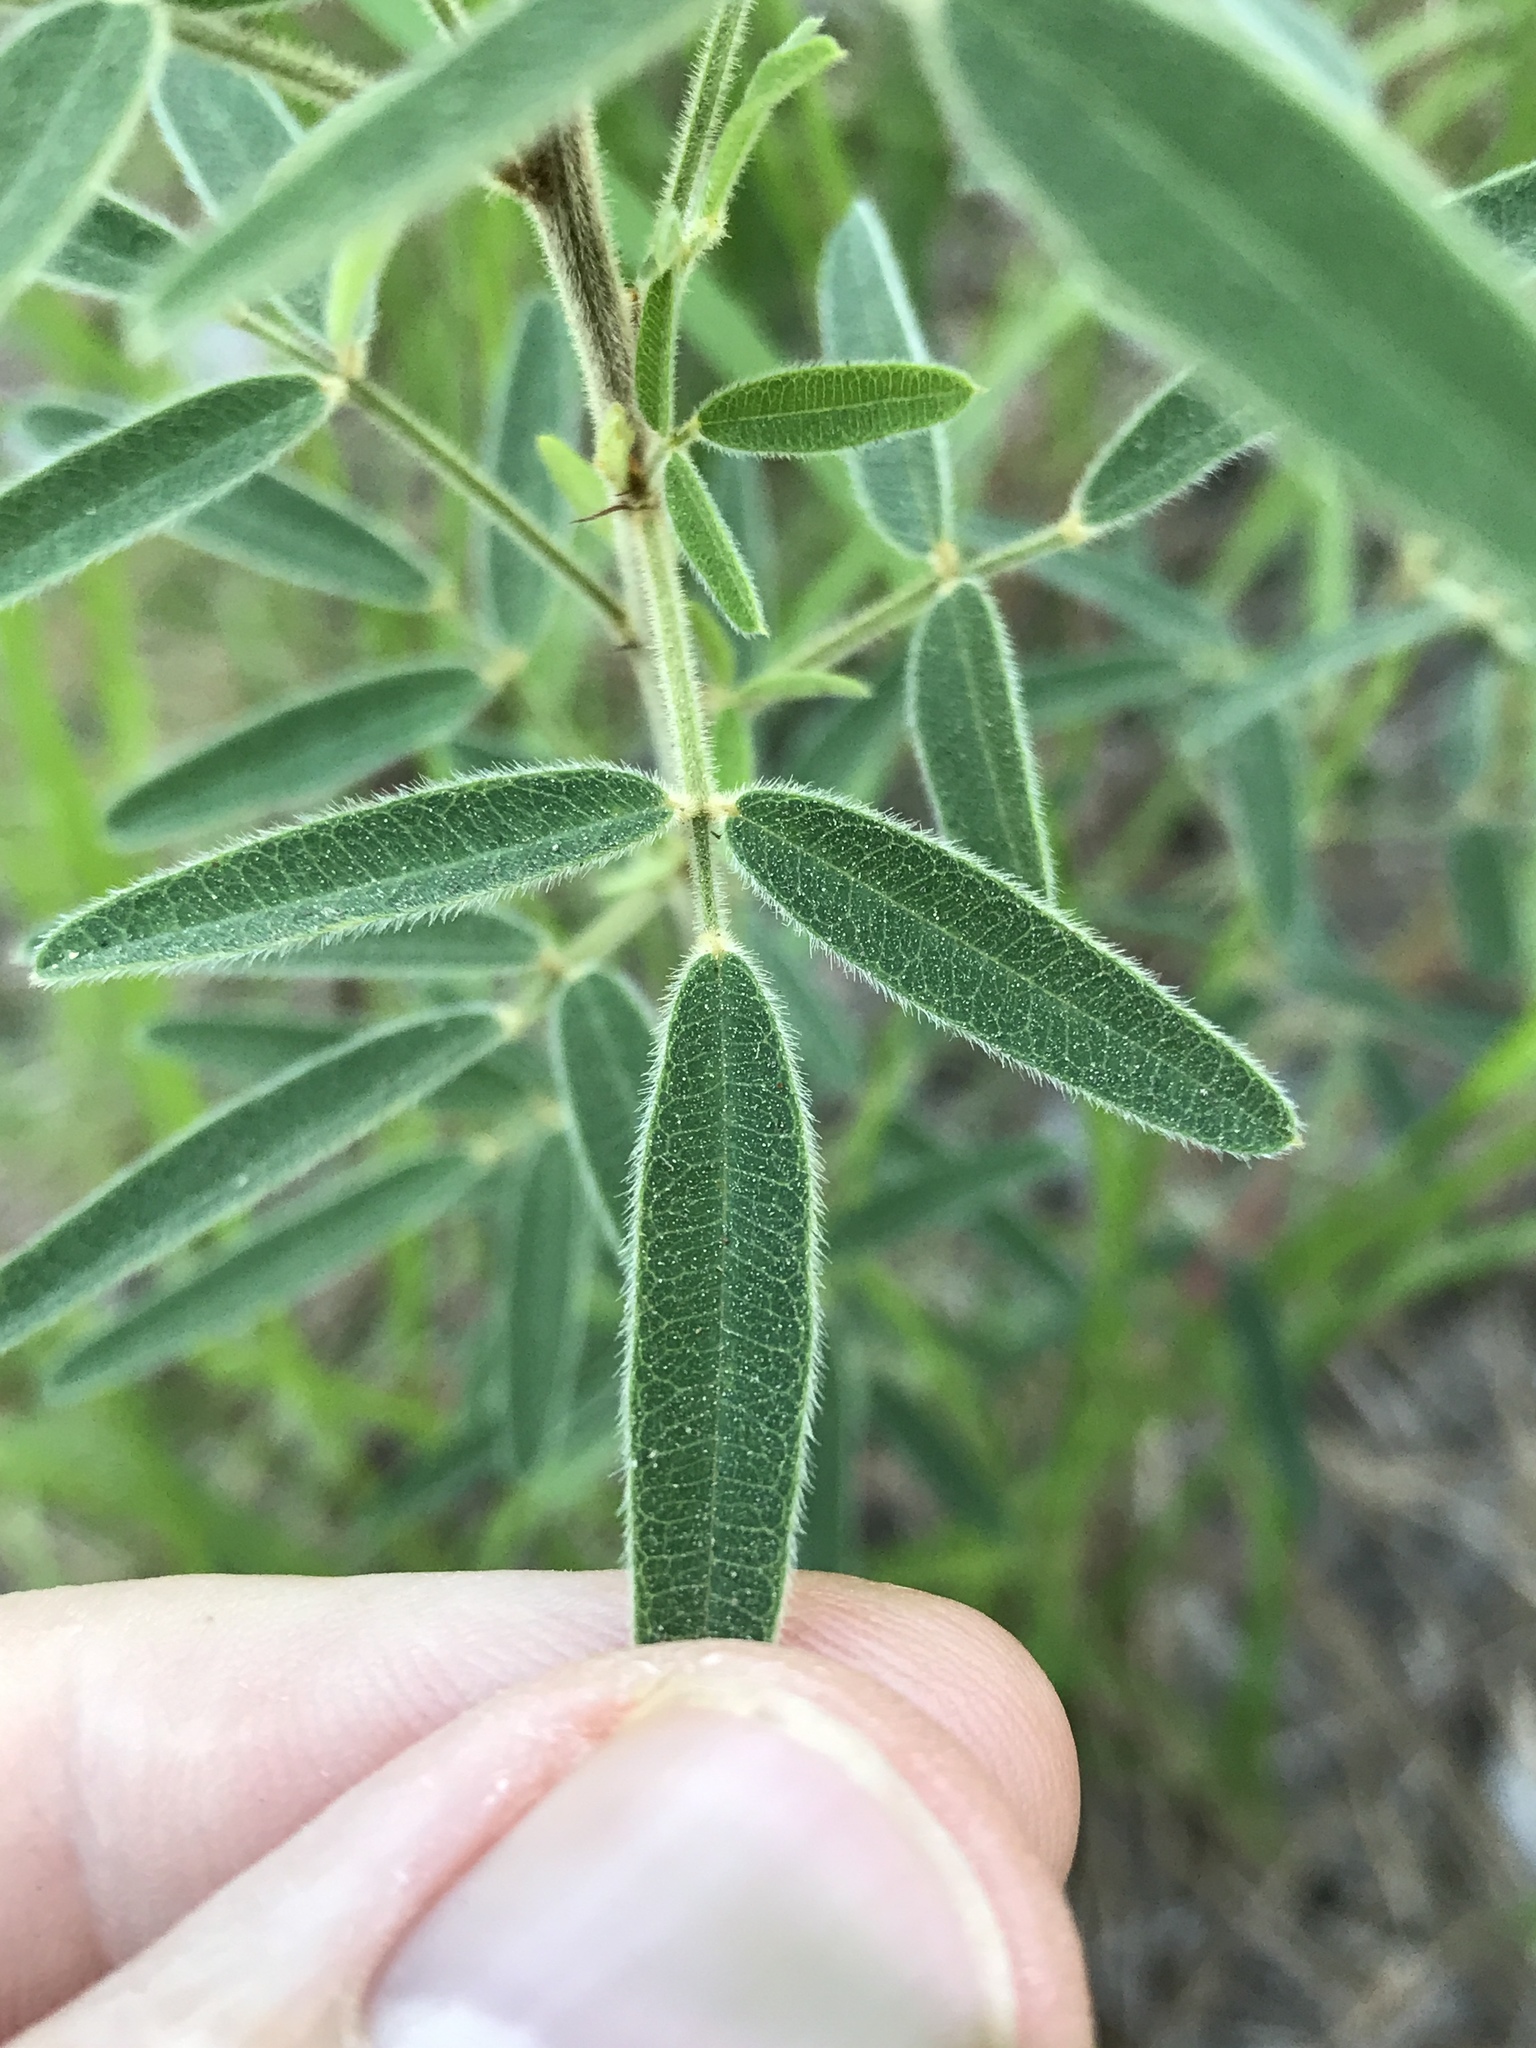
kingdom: Plantae
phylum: Tracheophyta
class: Magnoliopsida
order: Fabales
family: Fabaceae
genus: Lespedeza
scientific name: Lespedeza virginica
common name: Slender bush-clover
